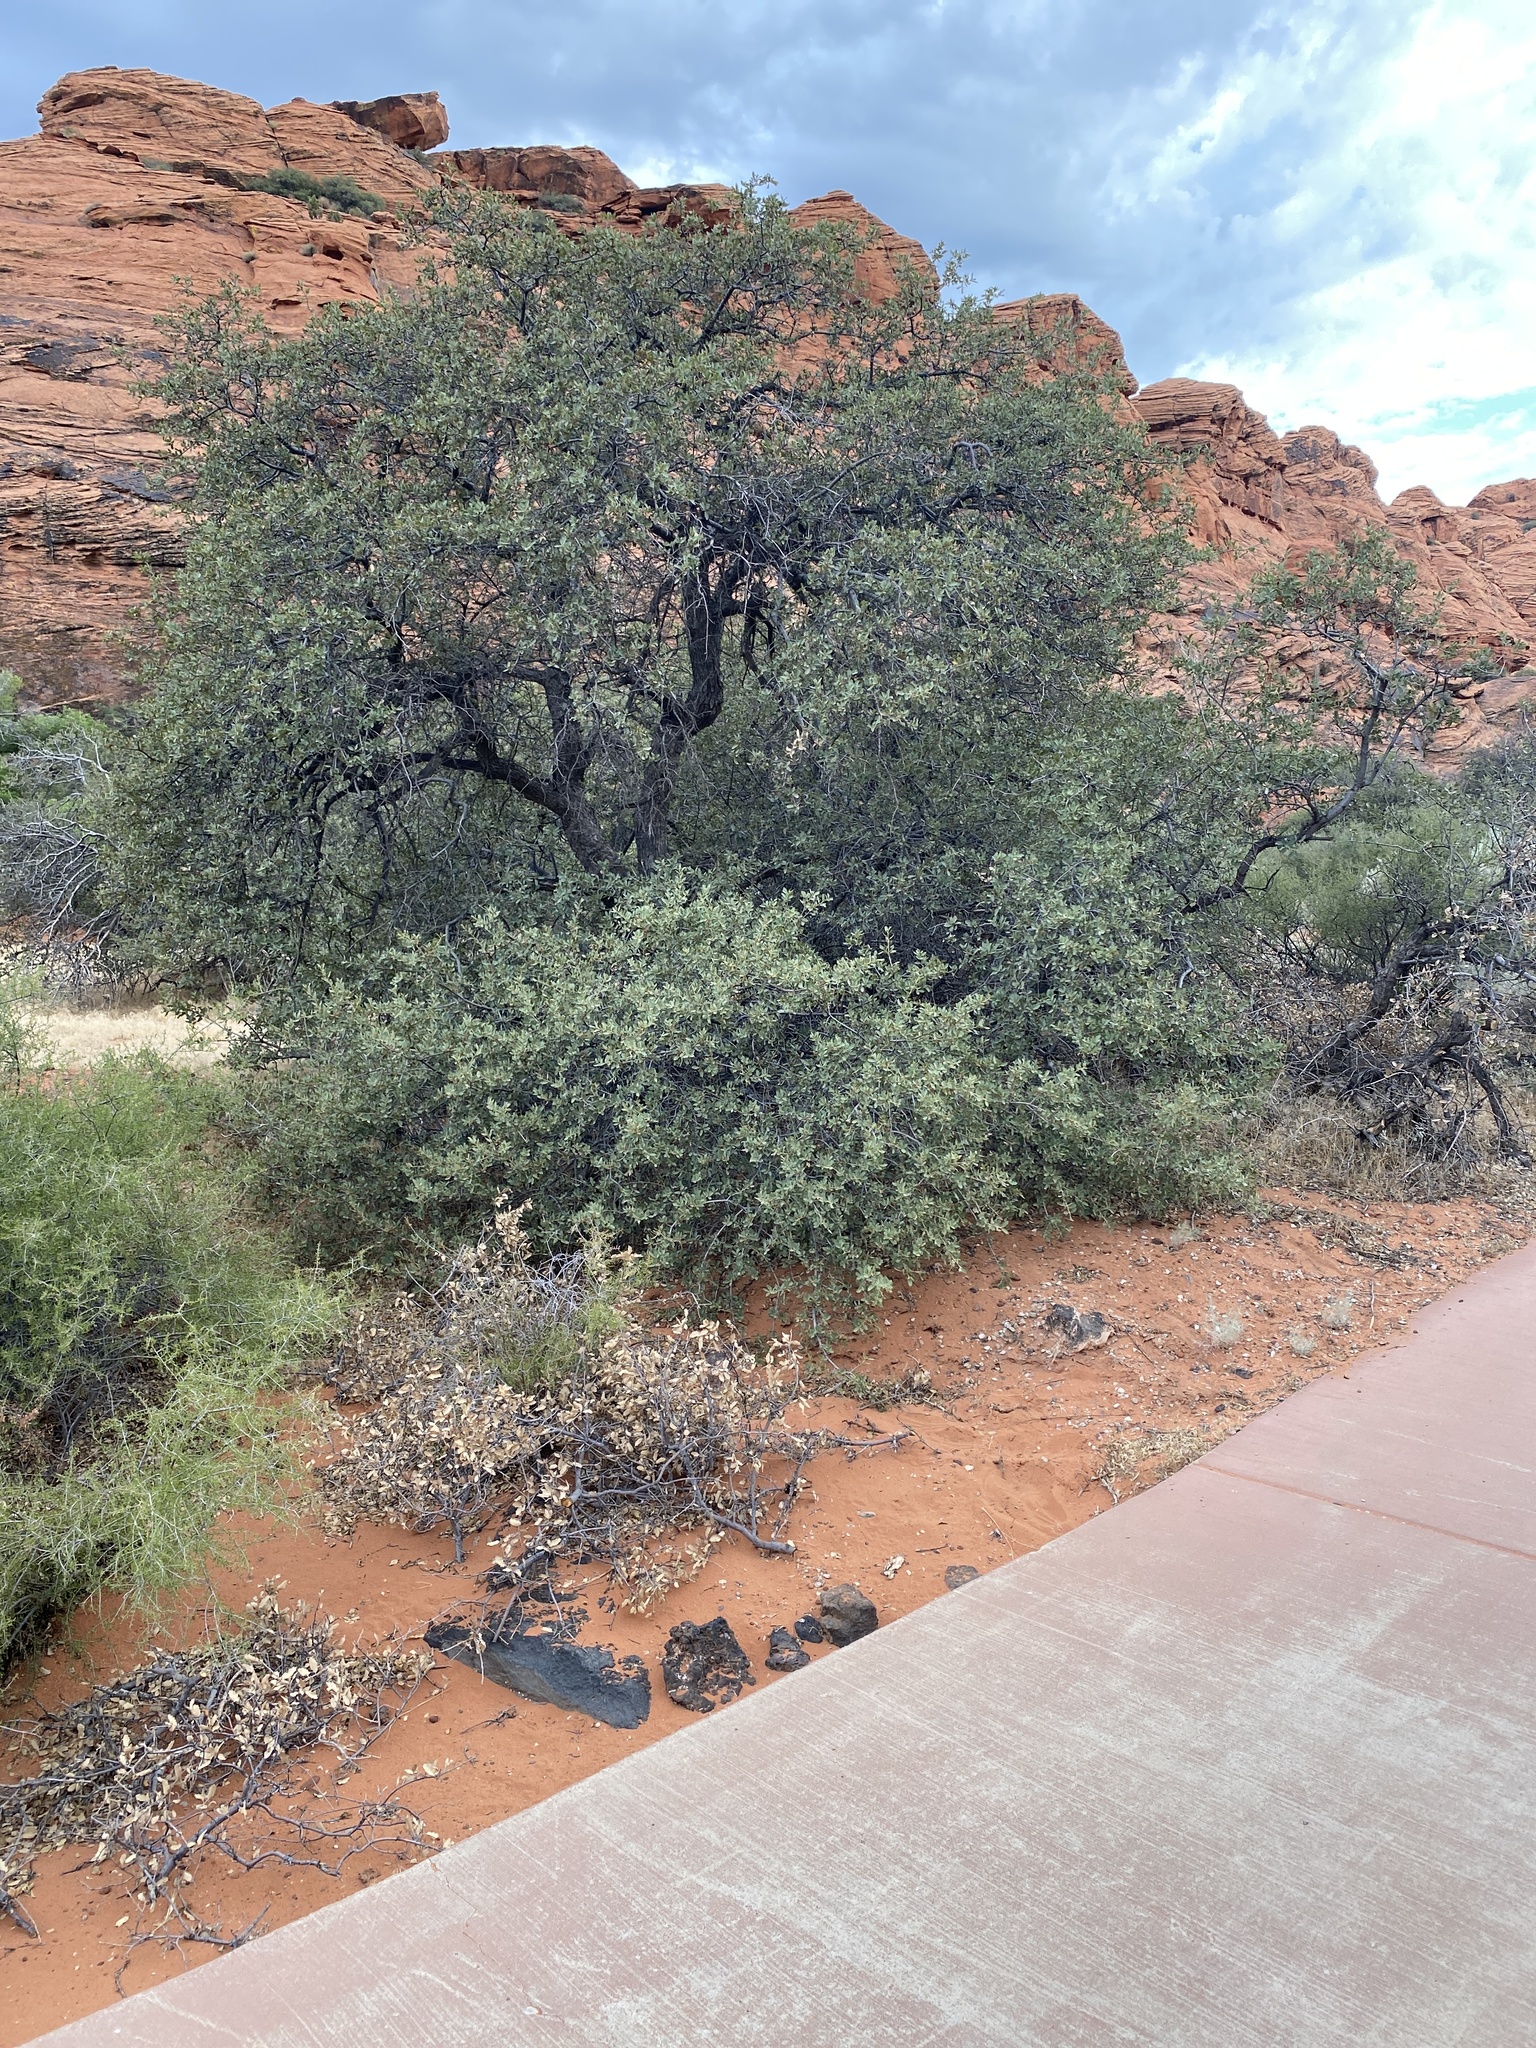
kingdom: Plantae
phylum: Tracheophyta
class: Magnoliopsida
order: Fagales
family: Fagaceae
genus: Quercus
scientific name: Quercus turbinella
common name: Sonoran scrub oak
